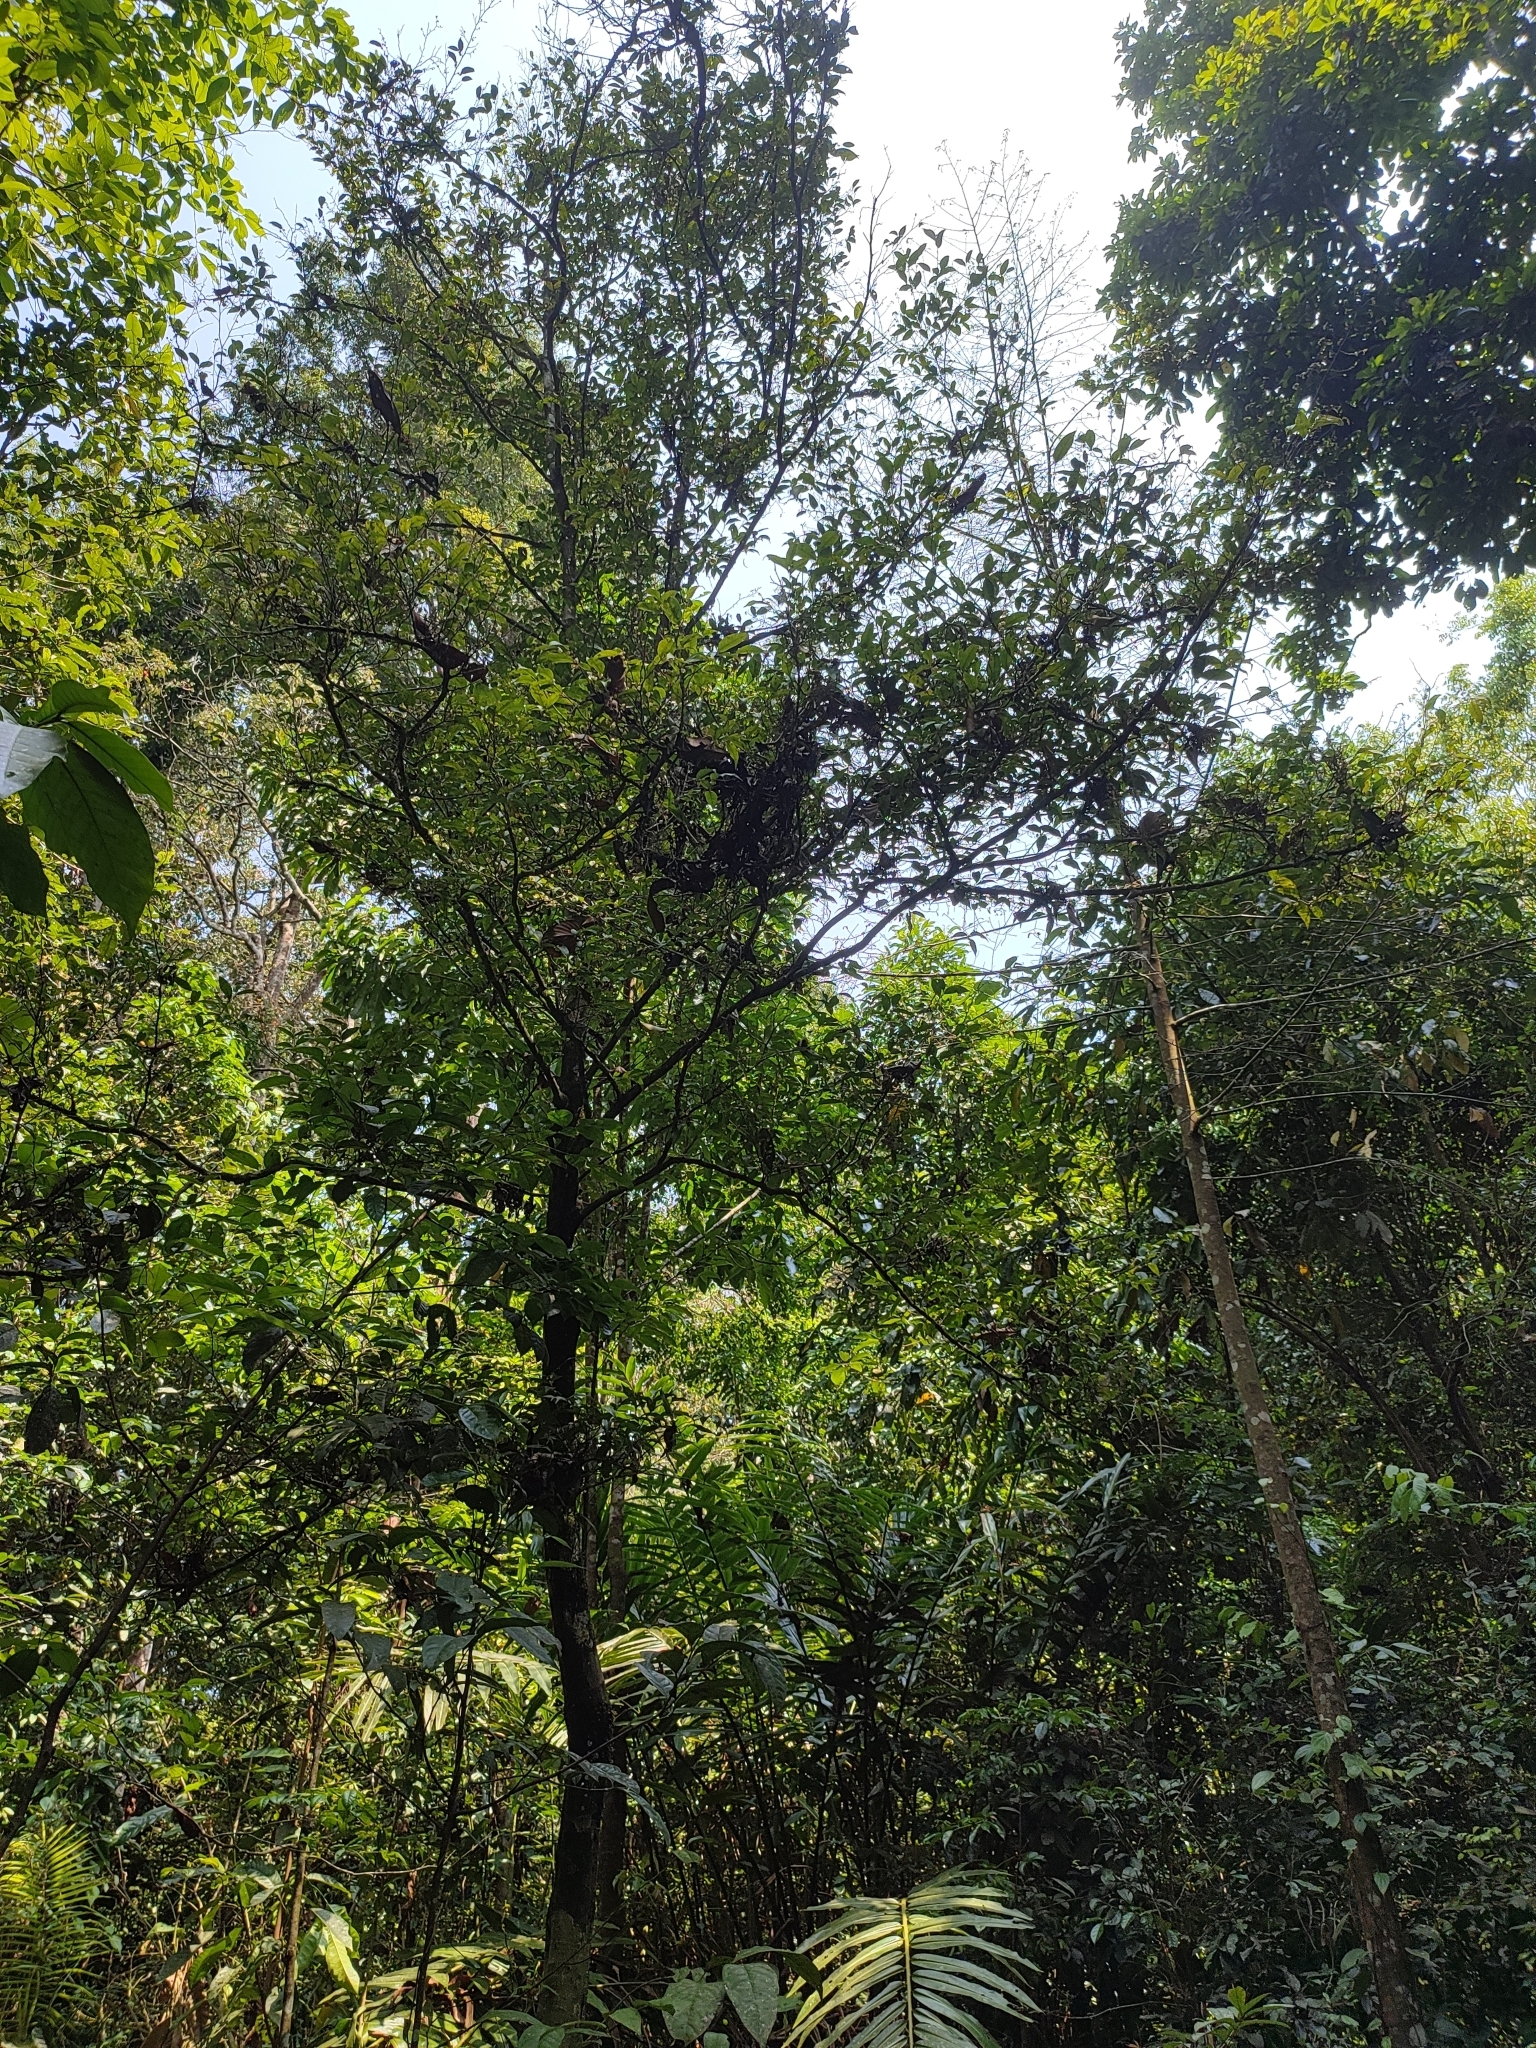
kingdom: Plantae
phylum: Tracheophyta
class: Magnoliopsida
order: Magnoliales
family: Annonaceae
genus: Orophea
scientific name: Orophea thomsonii
